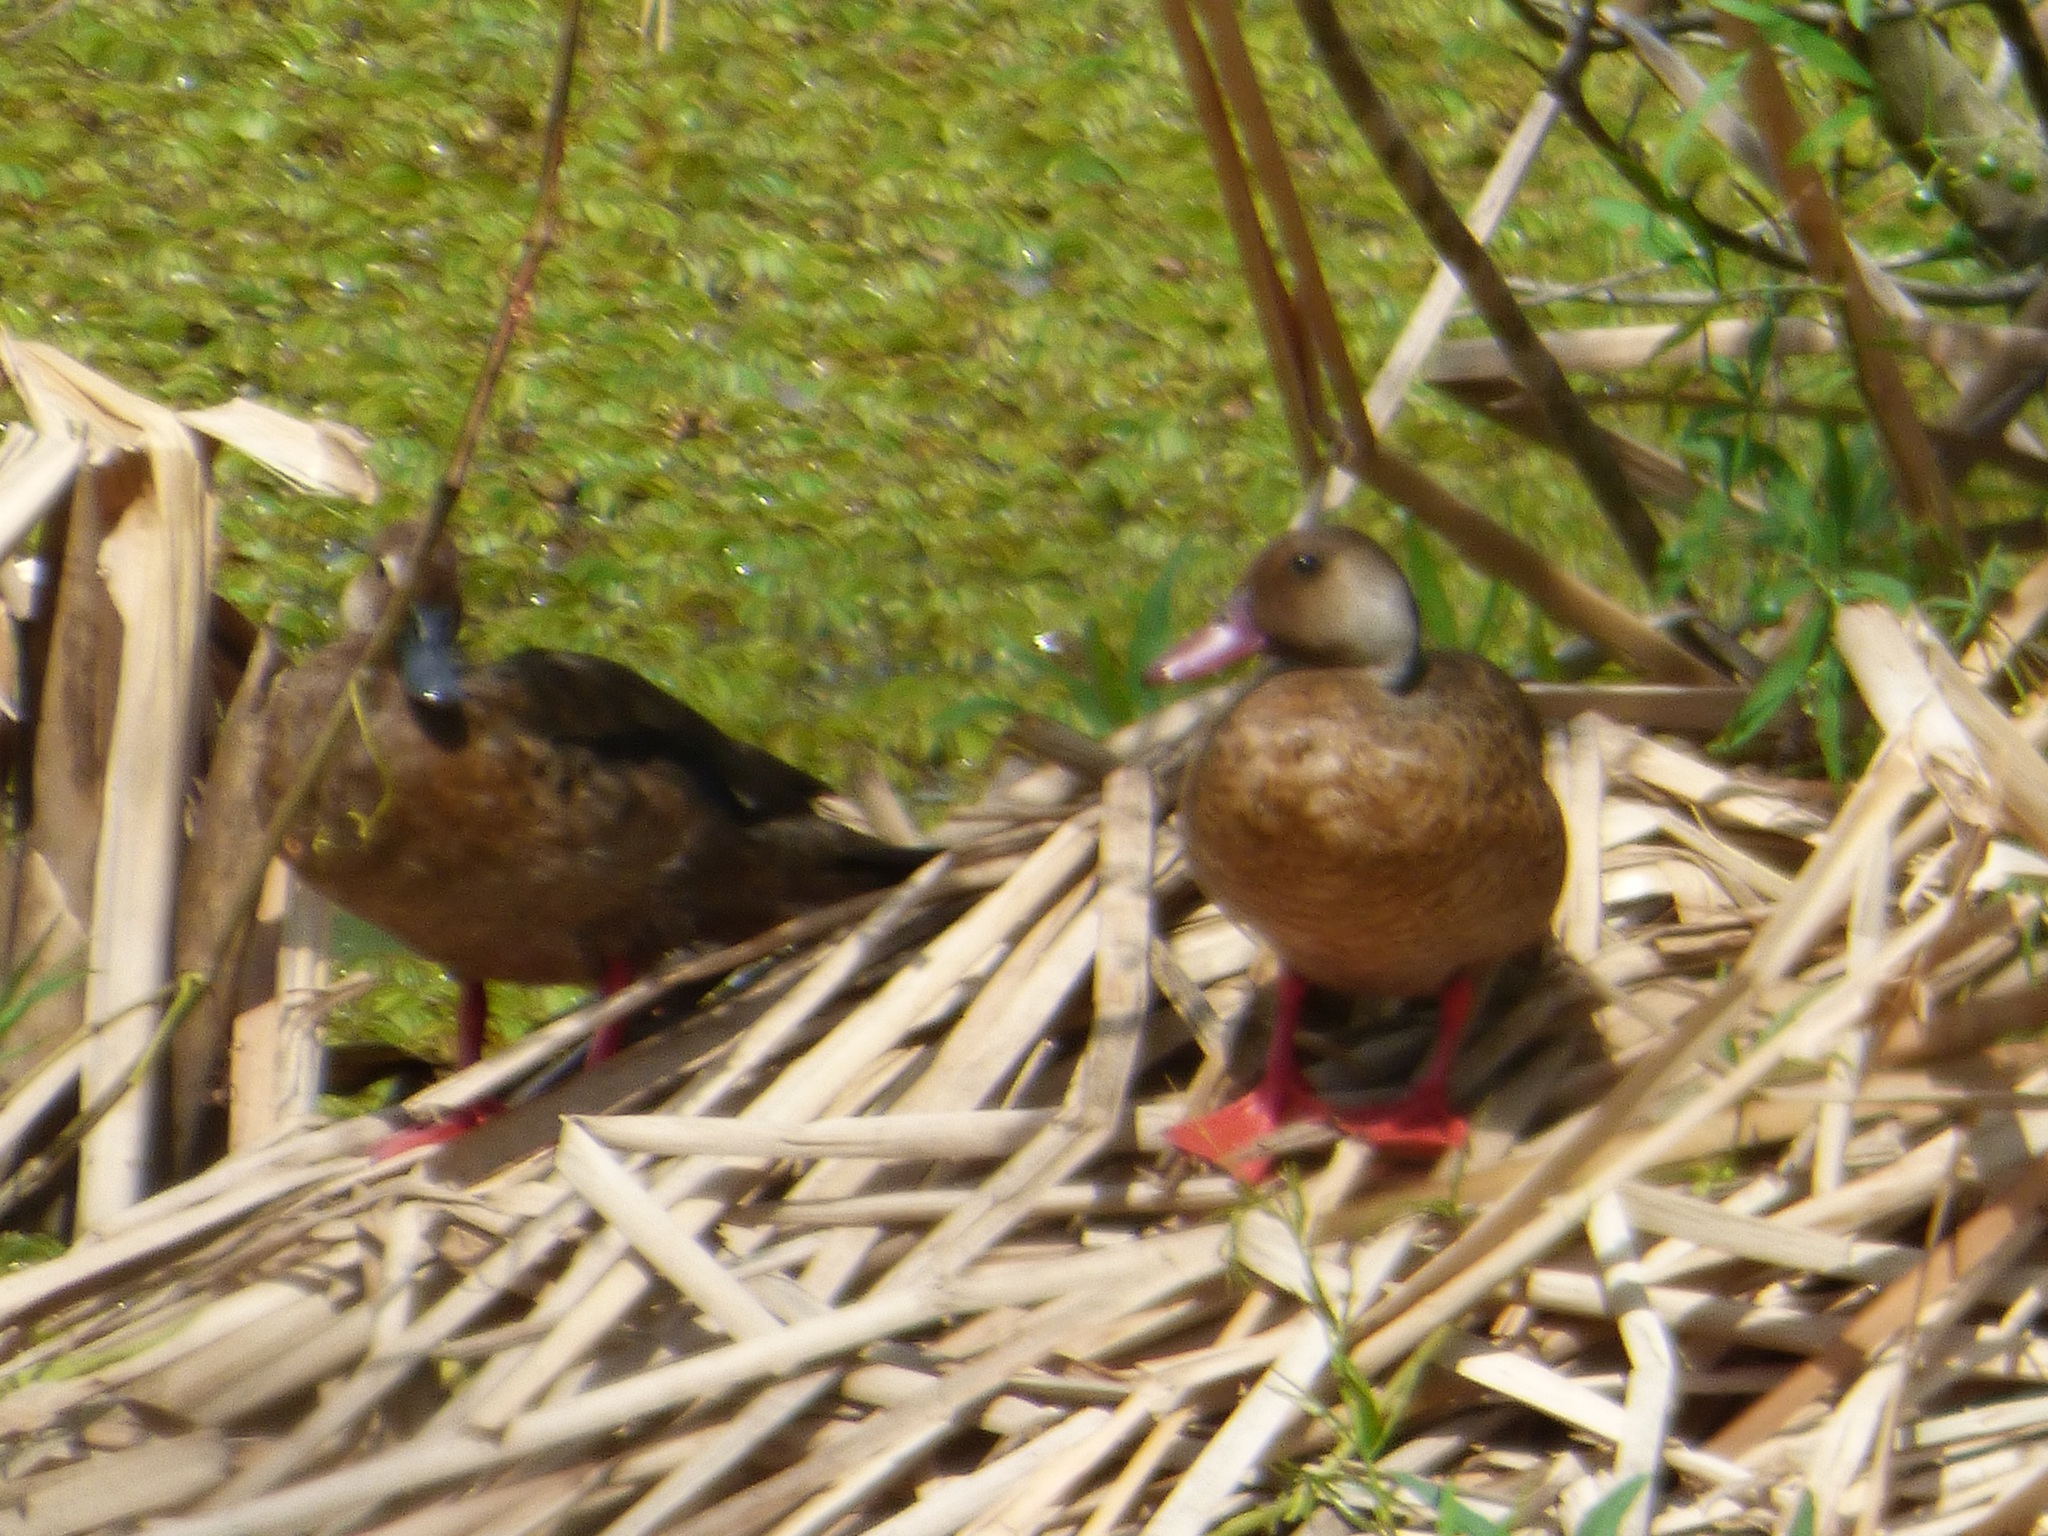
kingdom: Animalia
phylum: Chordata
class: Aves
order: Anseriformes
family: Anatidae
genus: Amazonetta
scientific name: Amazonetta brasiliensis
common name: Brazilian teal
